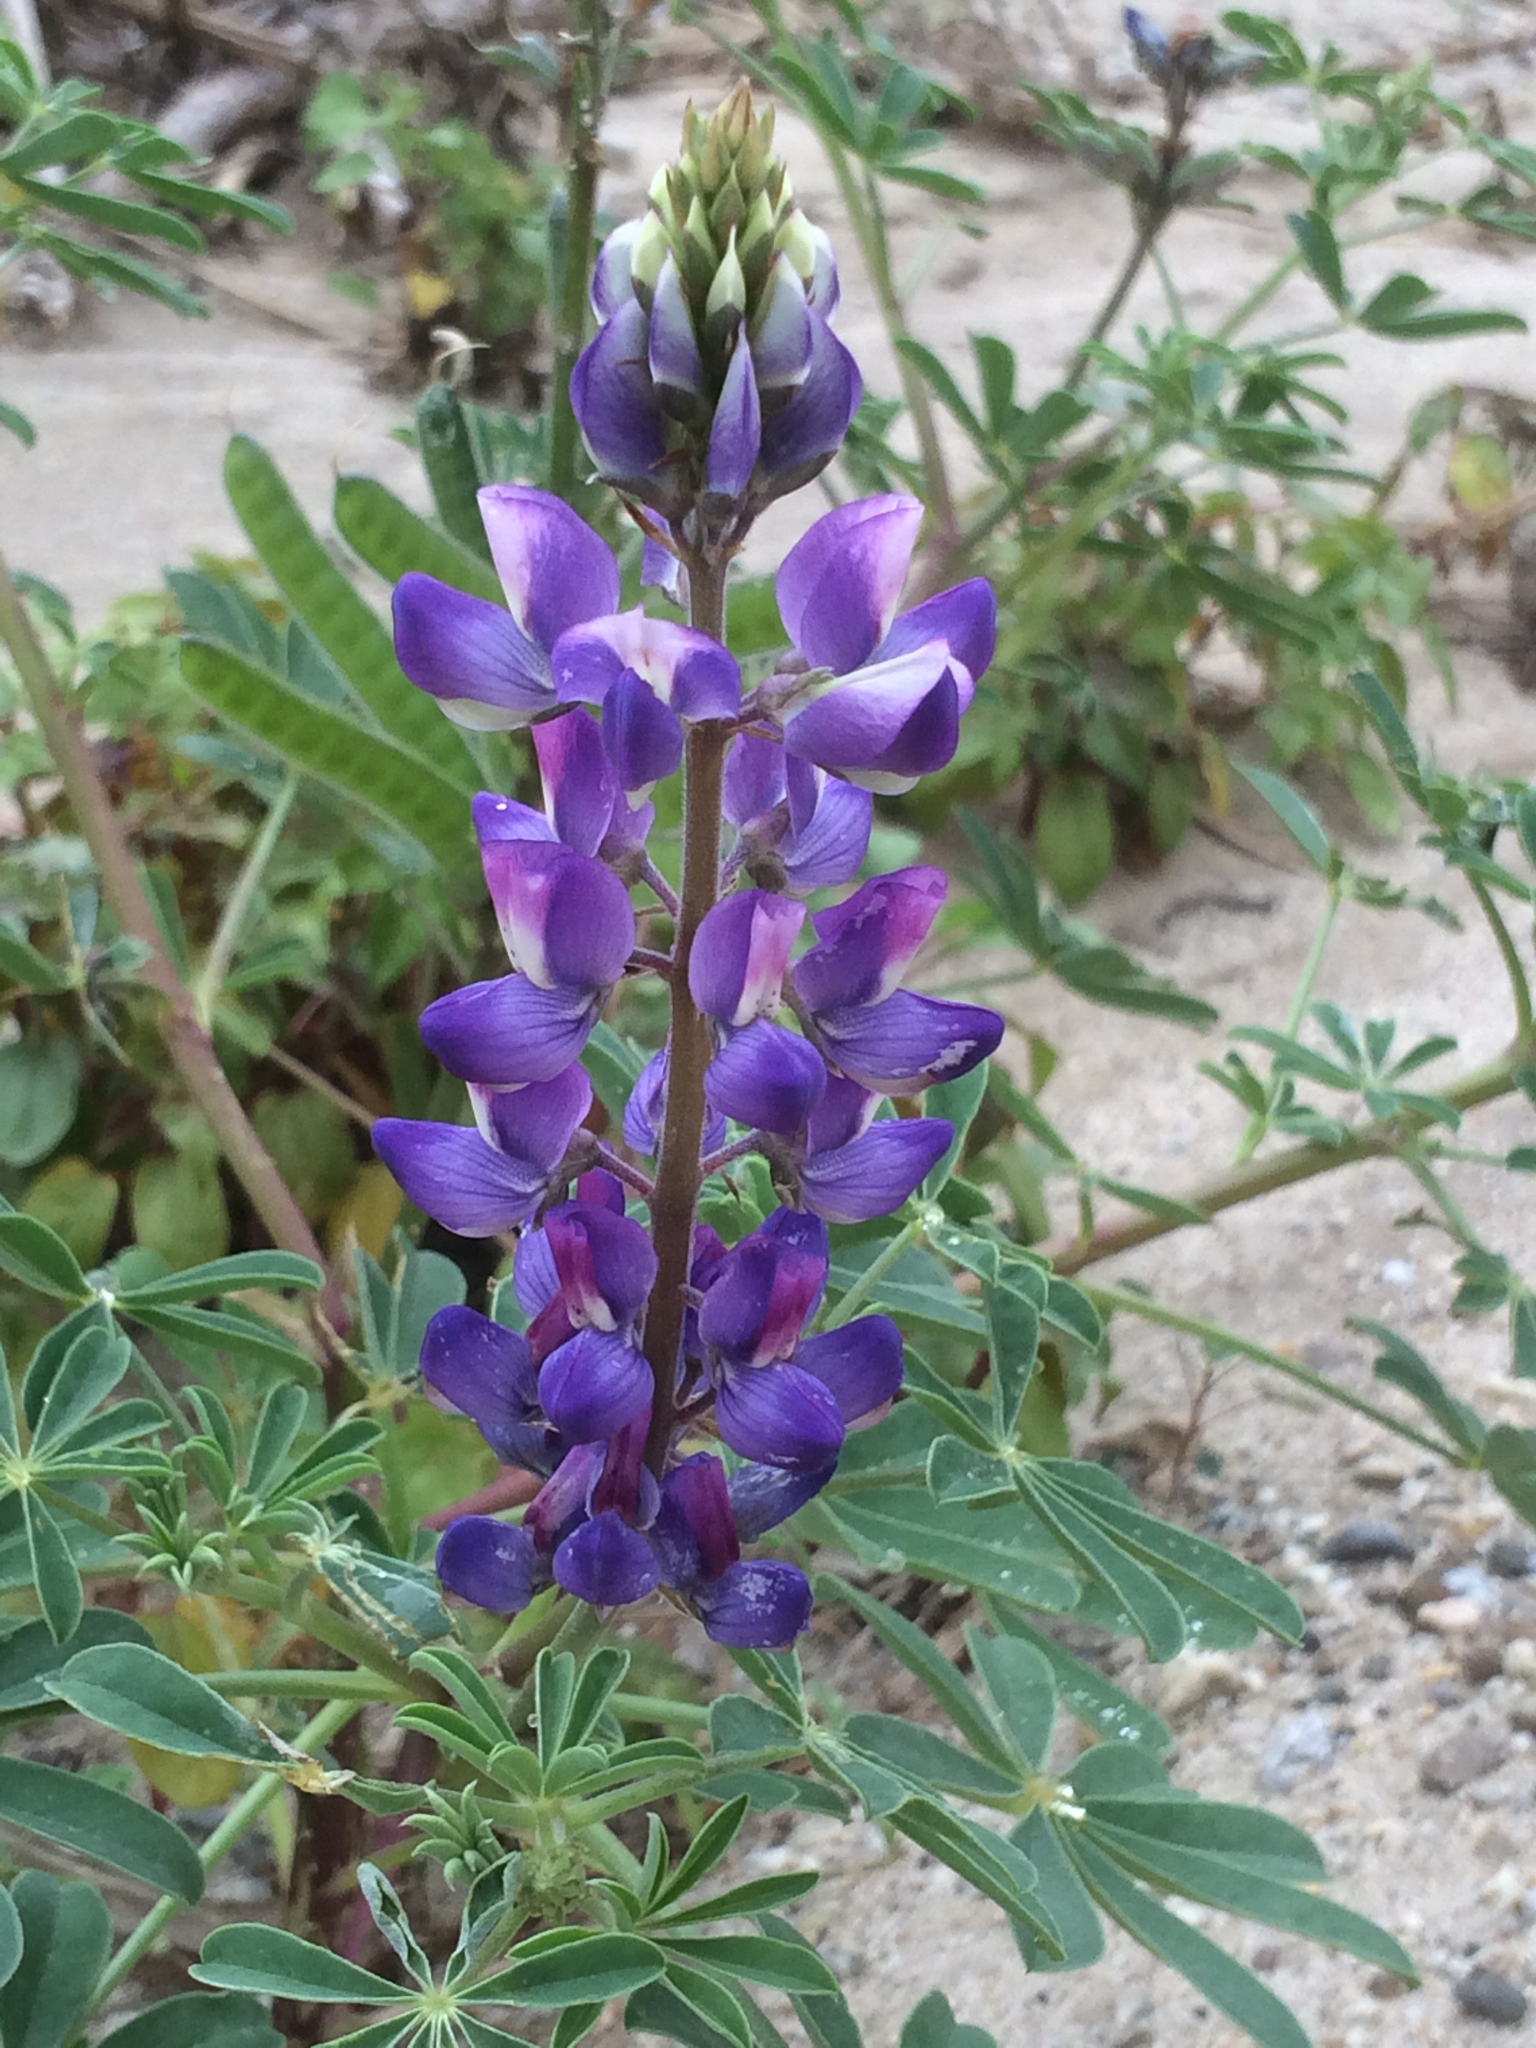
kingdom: Plantae
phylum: Tracheophyta
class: Magnoliopsida
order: Fabales
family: Fabaceae
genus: Lupinus
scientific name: Lupinus succulentus
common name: Arroyo lupine
